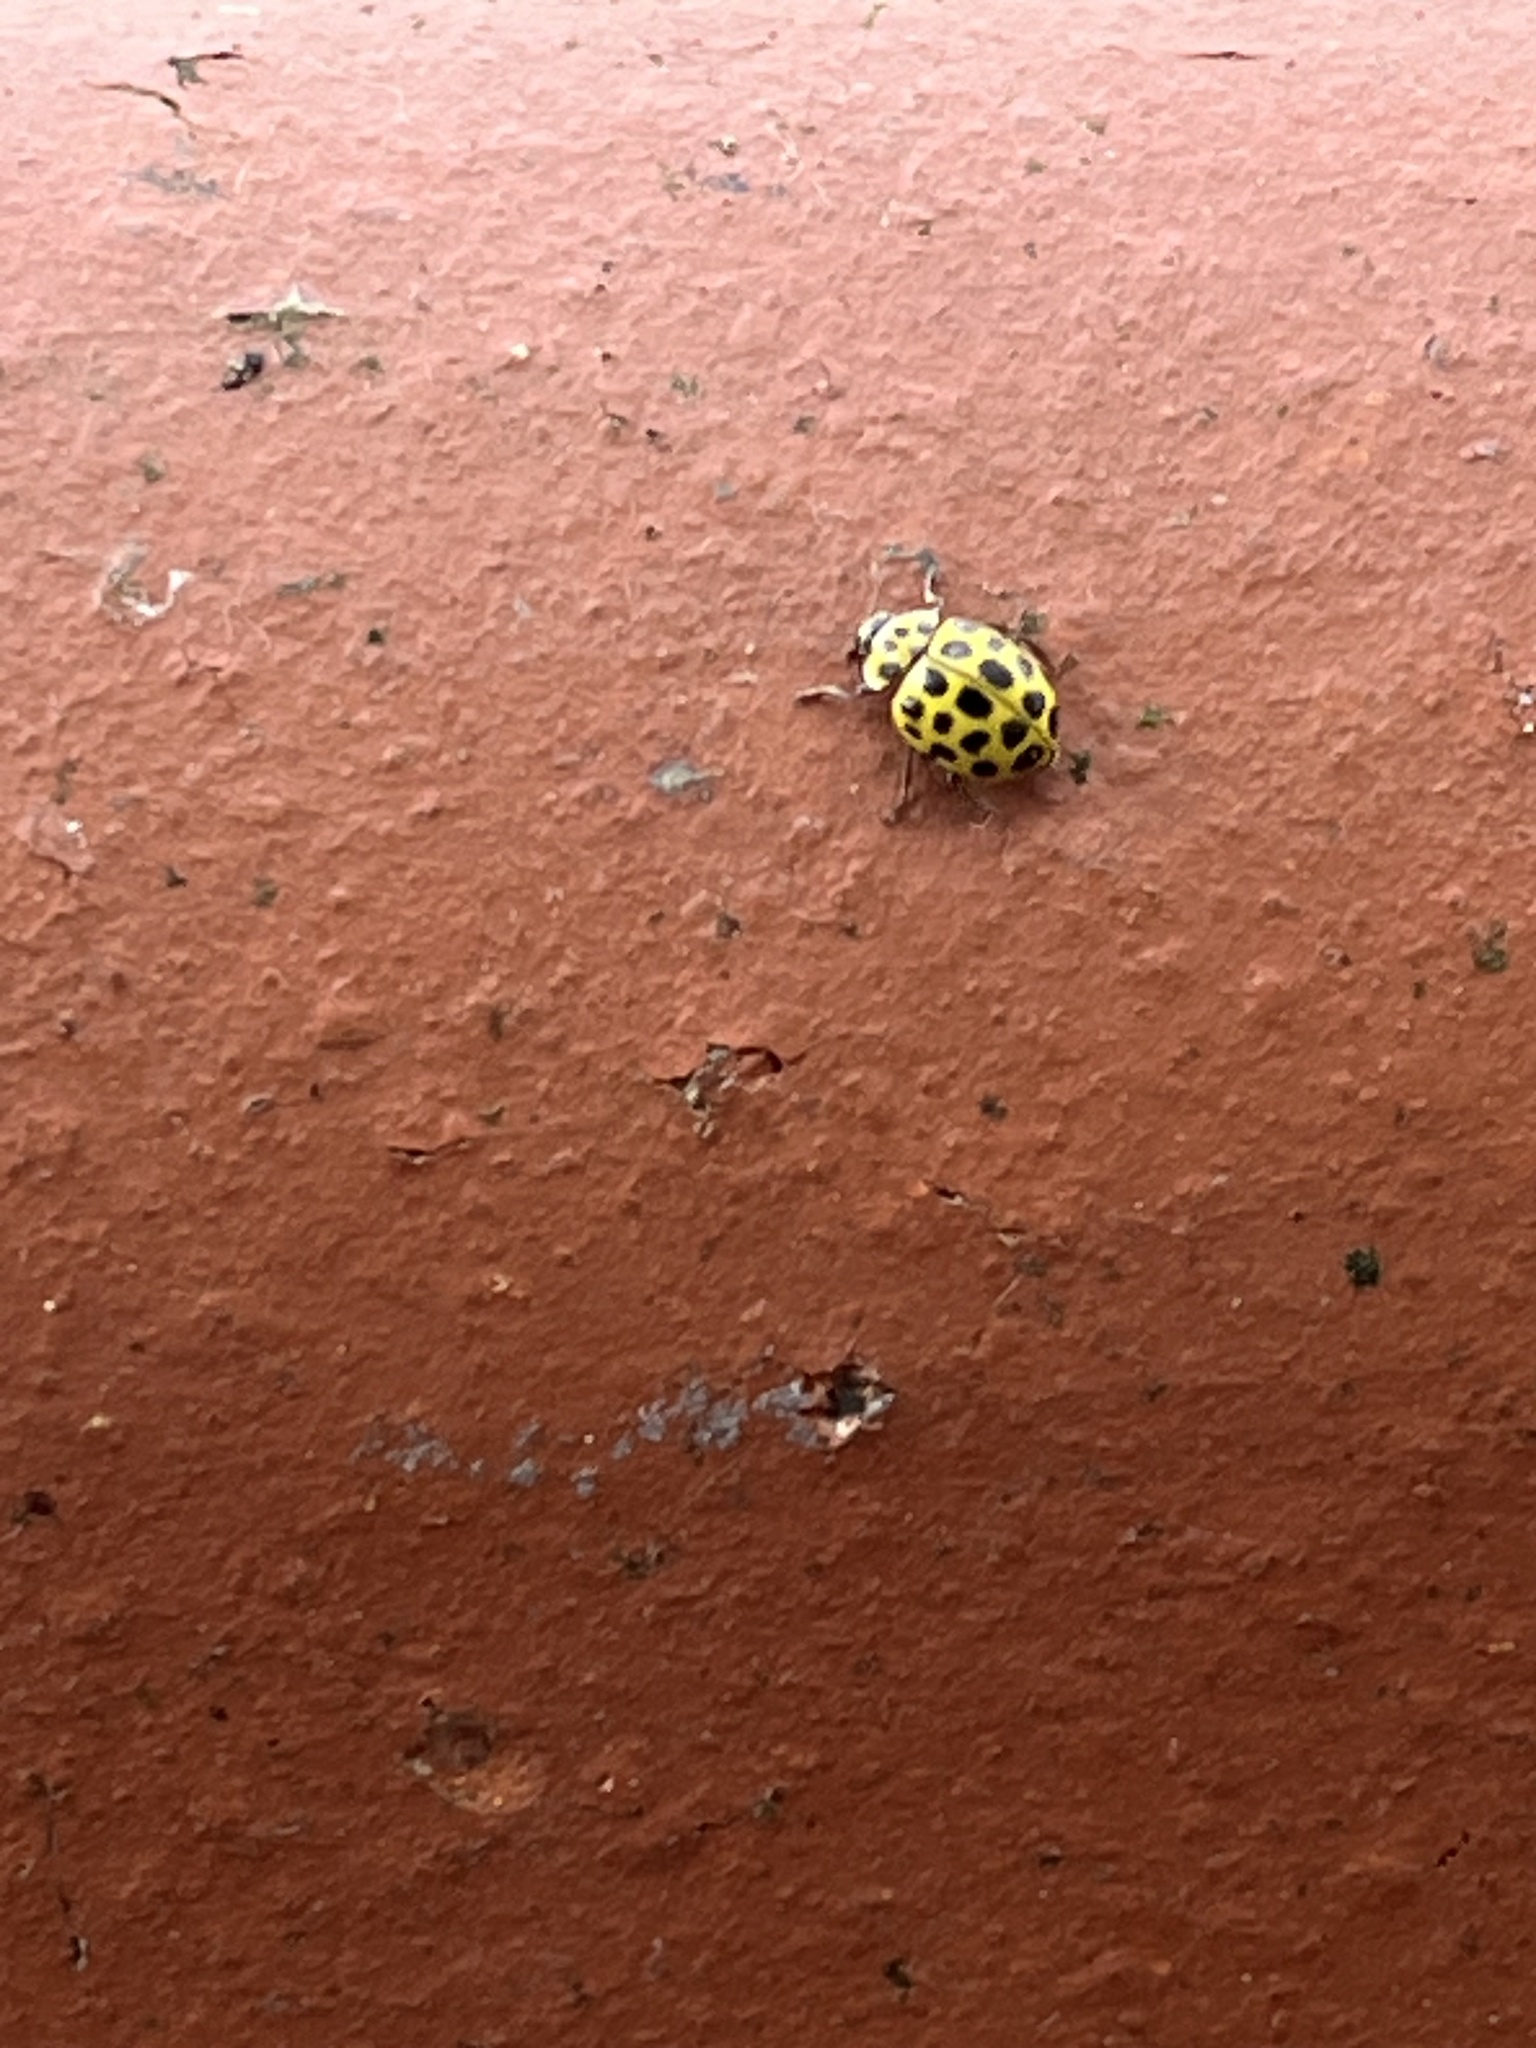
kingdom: Animalia
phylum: Arthropoda
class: Insecta
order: Coleoptera
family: Coccinellidae
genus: Psyllobora
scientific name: Psyllobora vigintiduopunctata
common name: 22-spot ladybird
